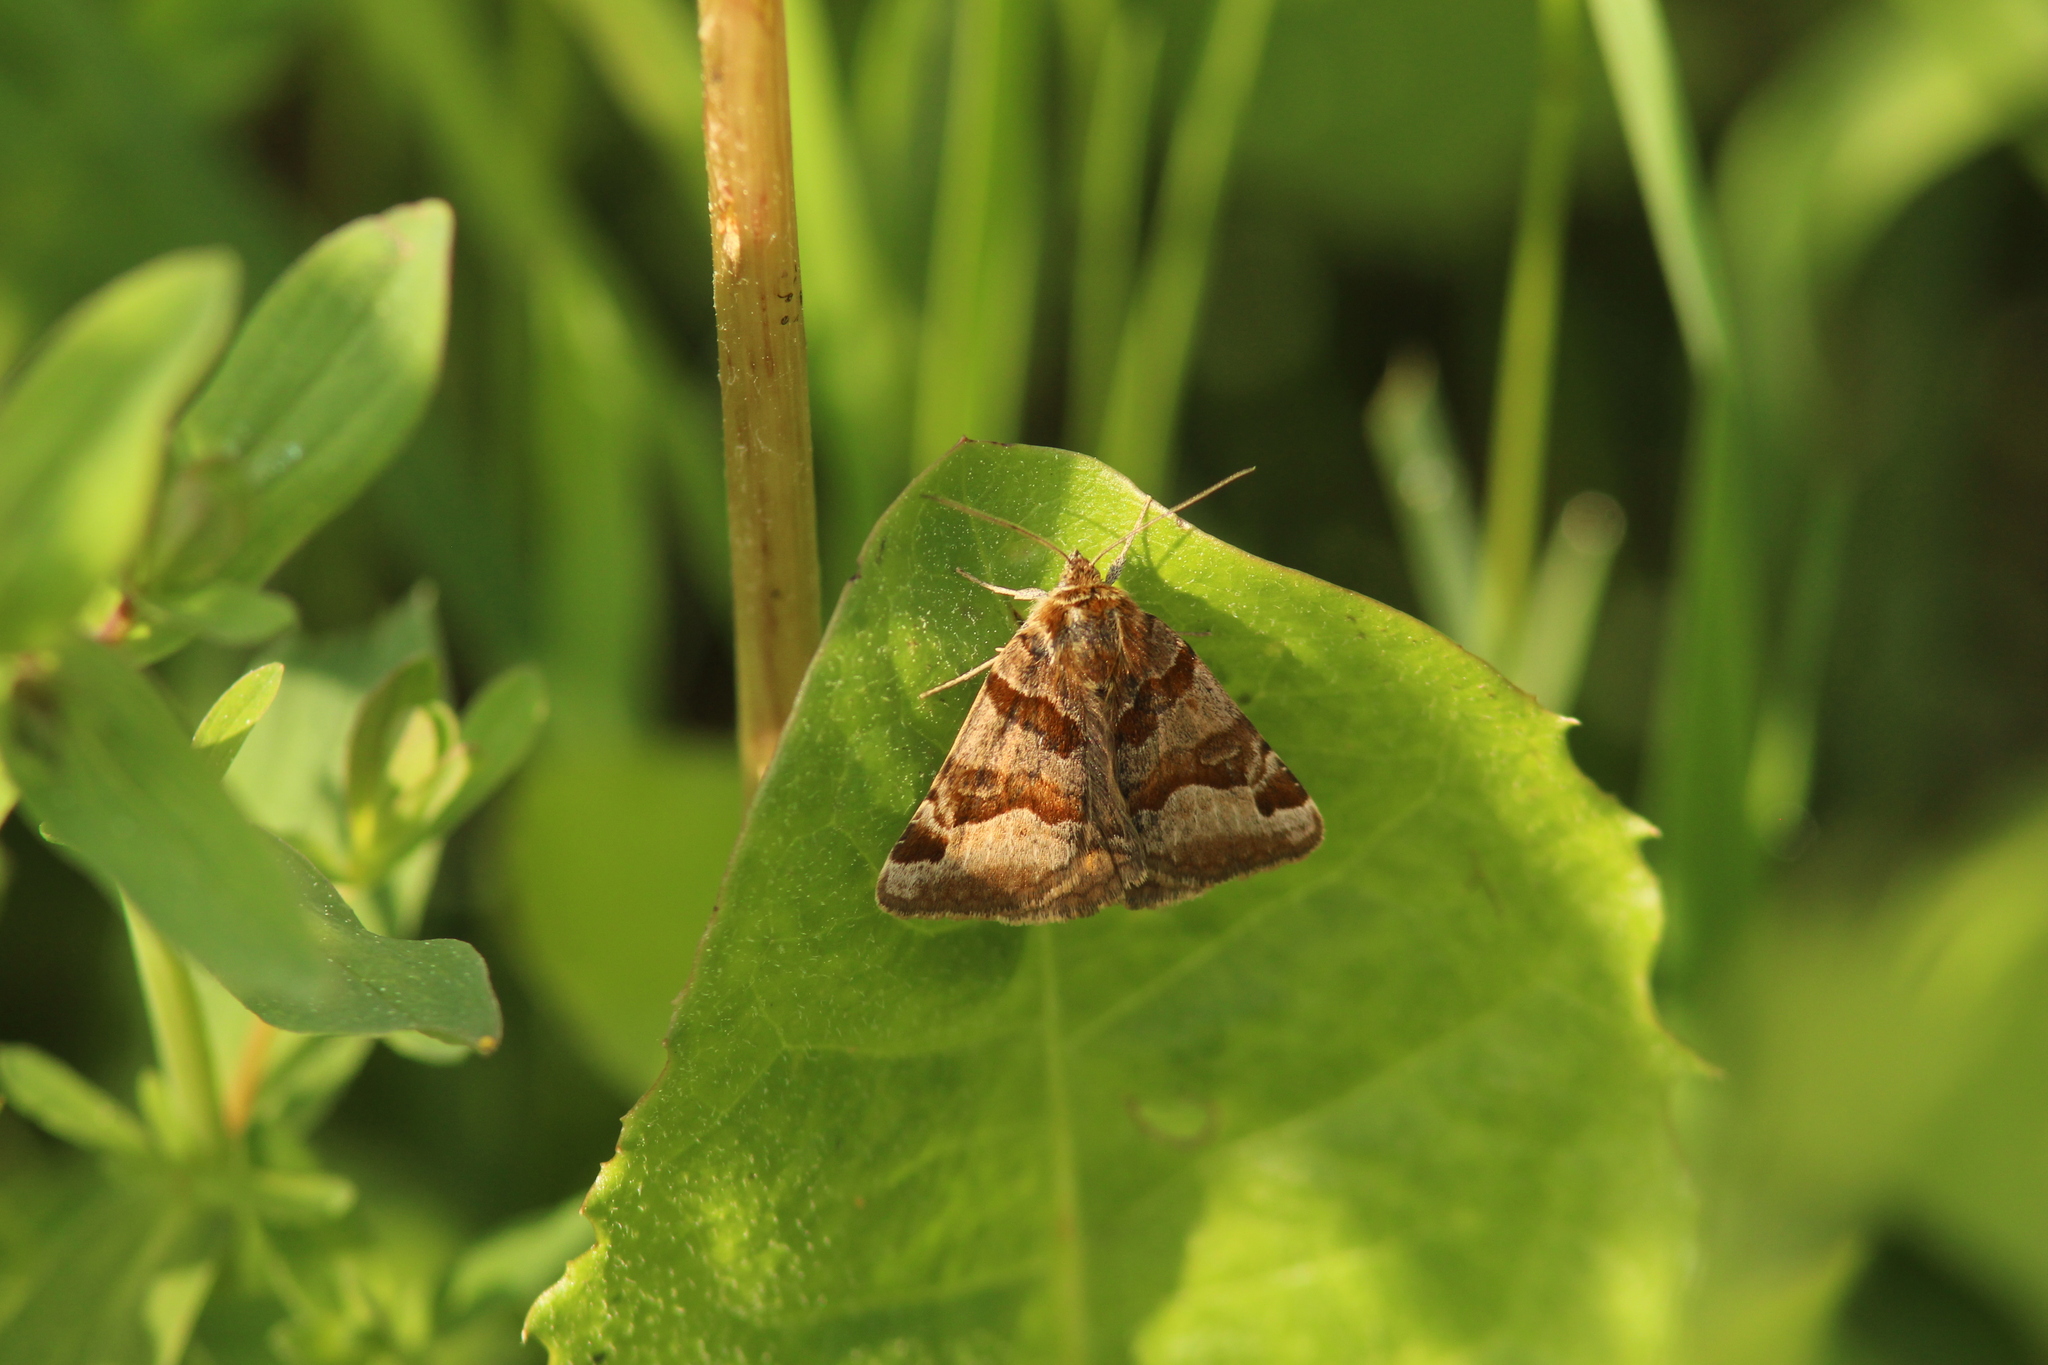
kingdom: Animalia
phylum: Arthropoda
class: Insecta
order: Lepidoptera
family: Erebidae
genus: Euclidia
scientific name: Euclidia glyphica
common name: Burnet companion
